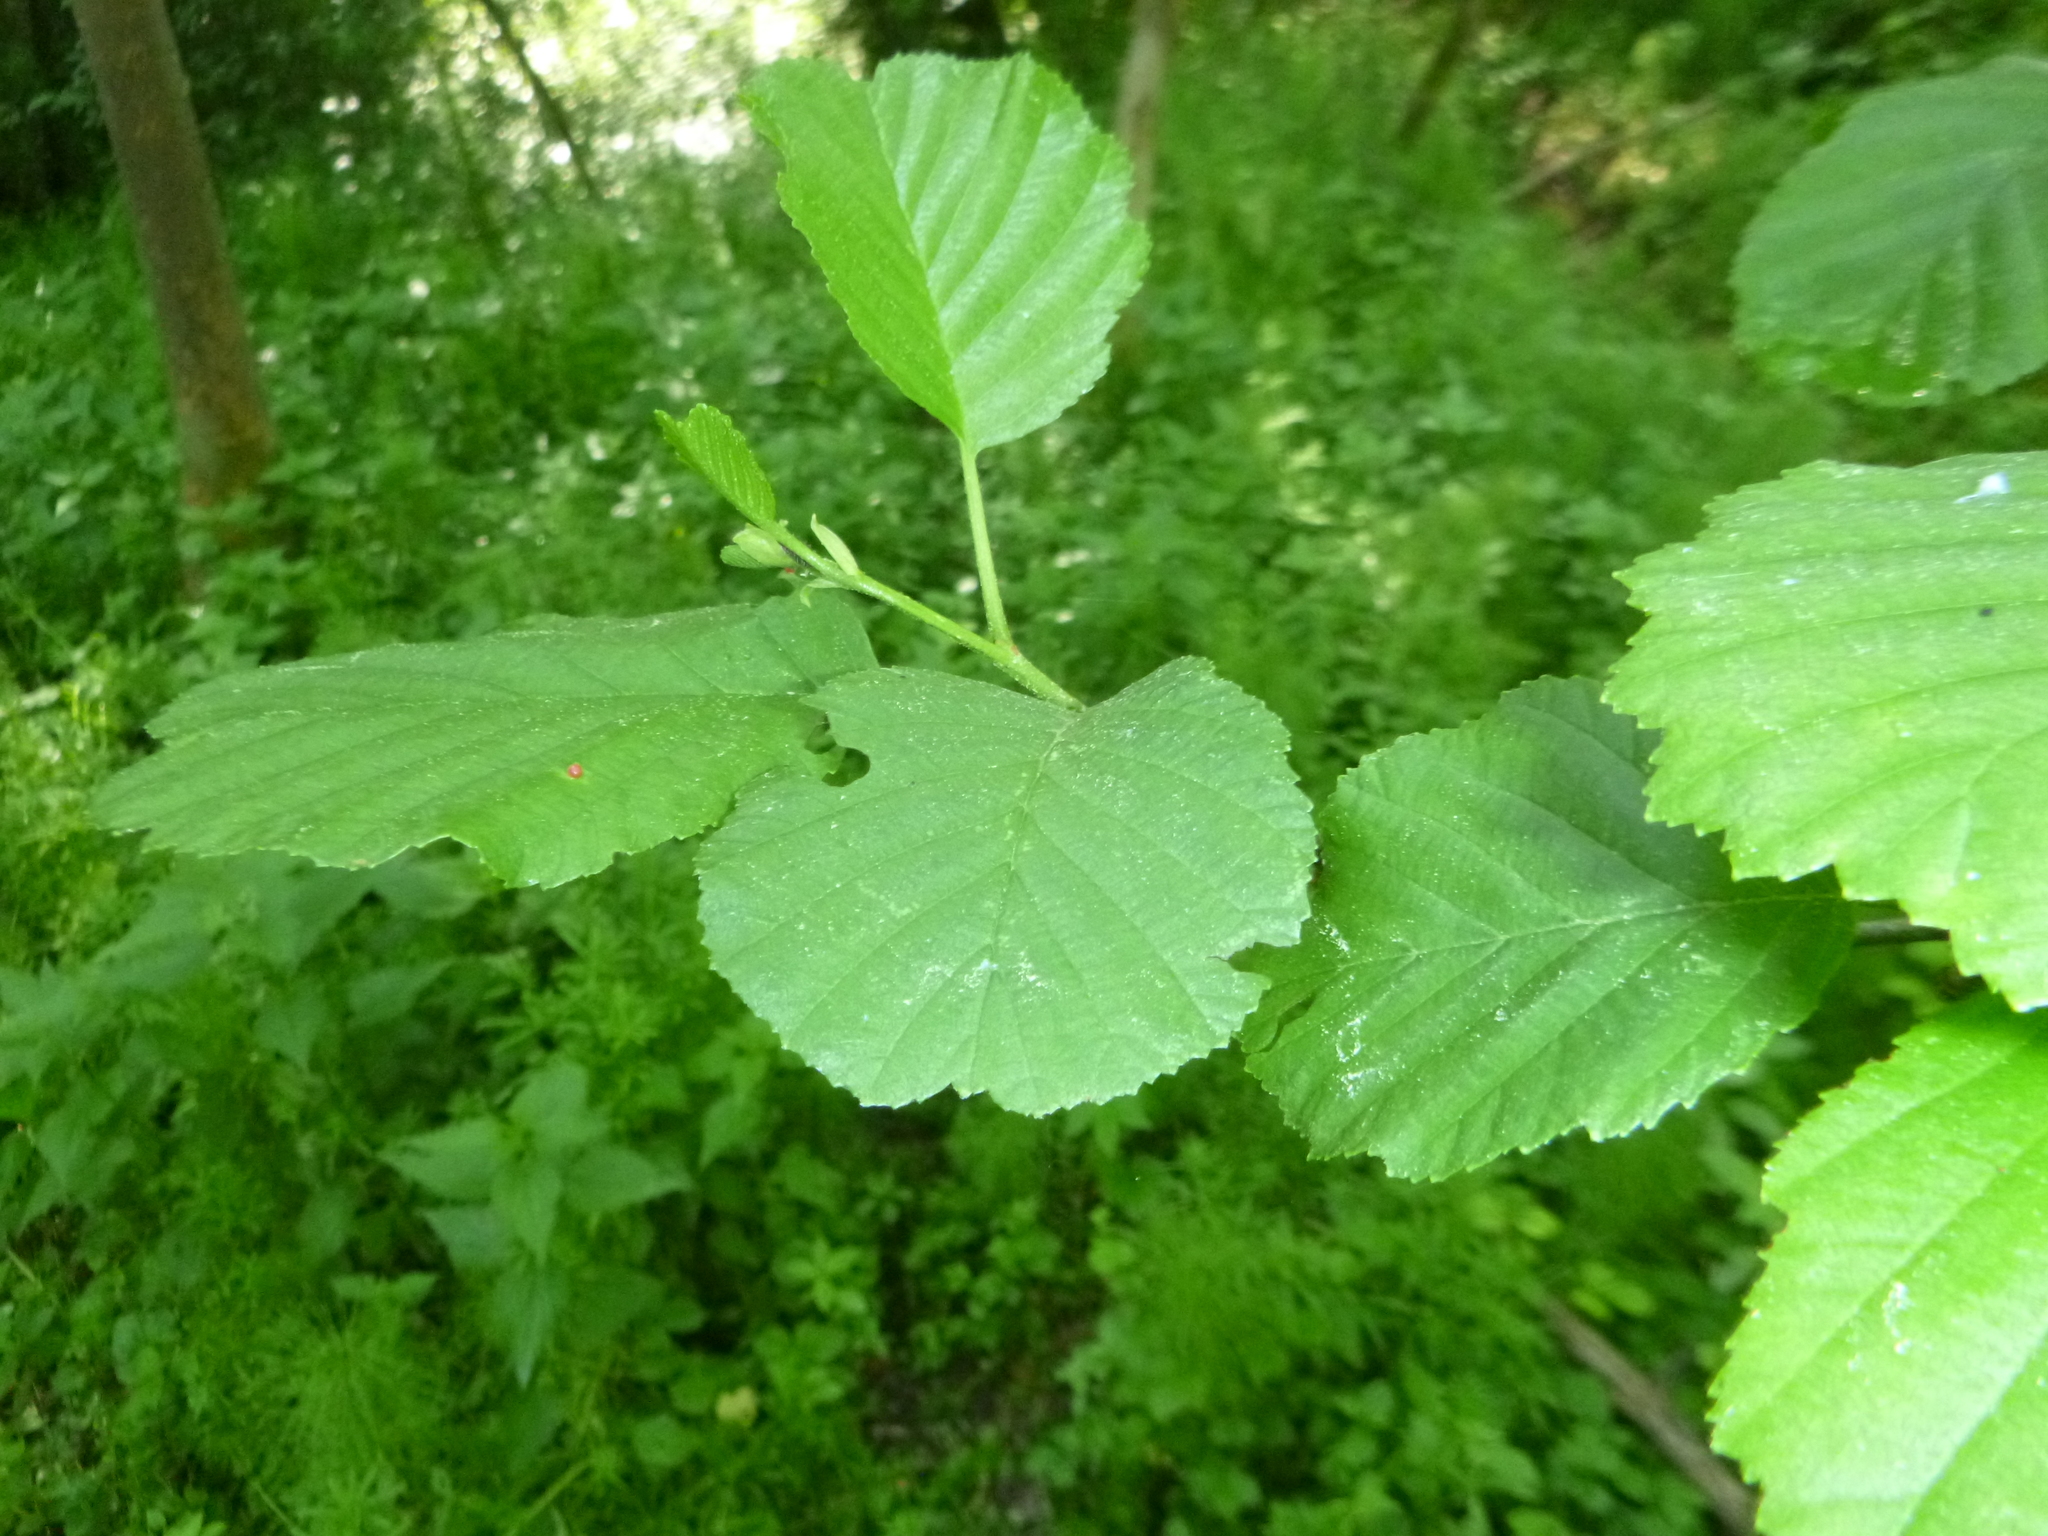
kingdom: Plantae
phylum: Tracheophyta
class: Magnoliopsida
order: Fagales
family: Betulaceae
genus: Alnus
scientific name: Alnus glutinosa
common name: Black alder
